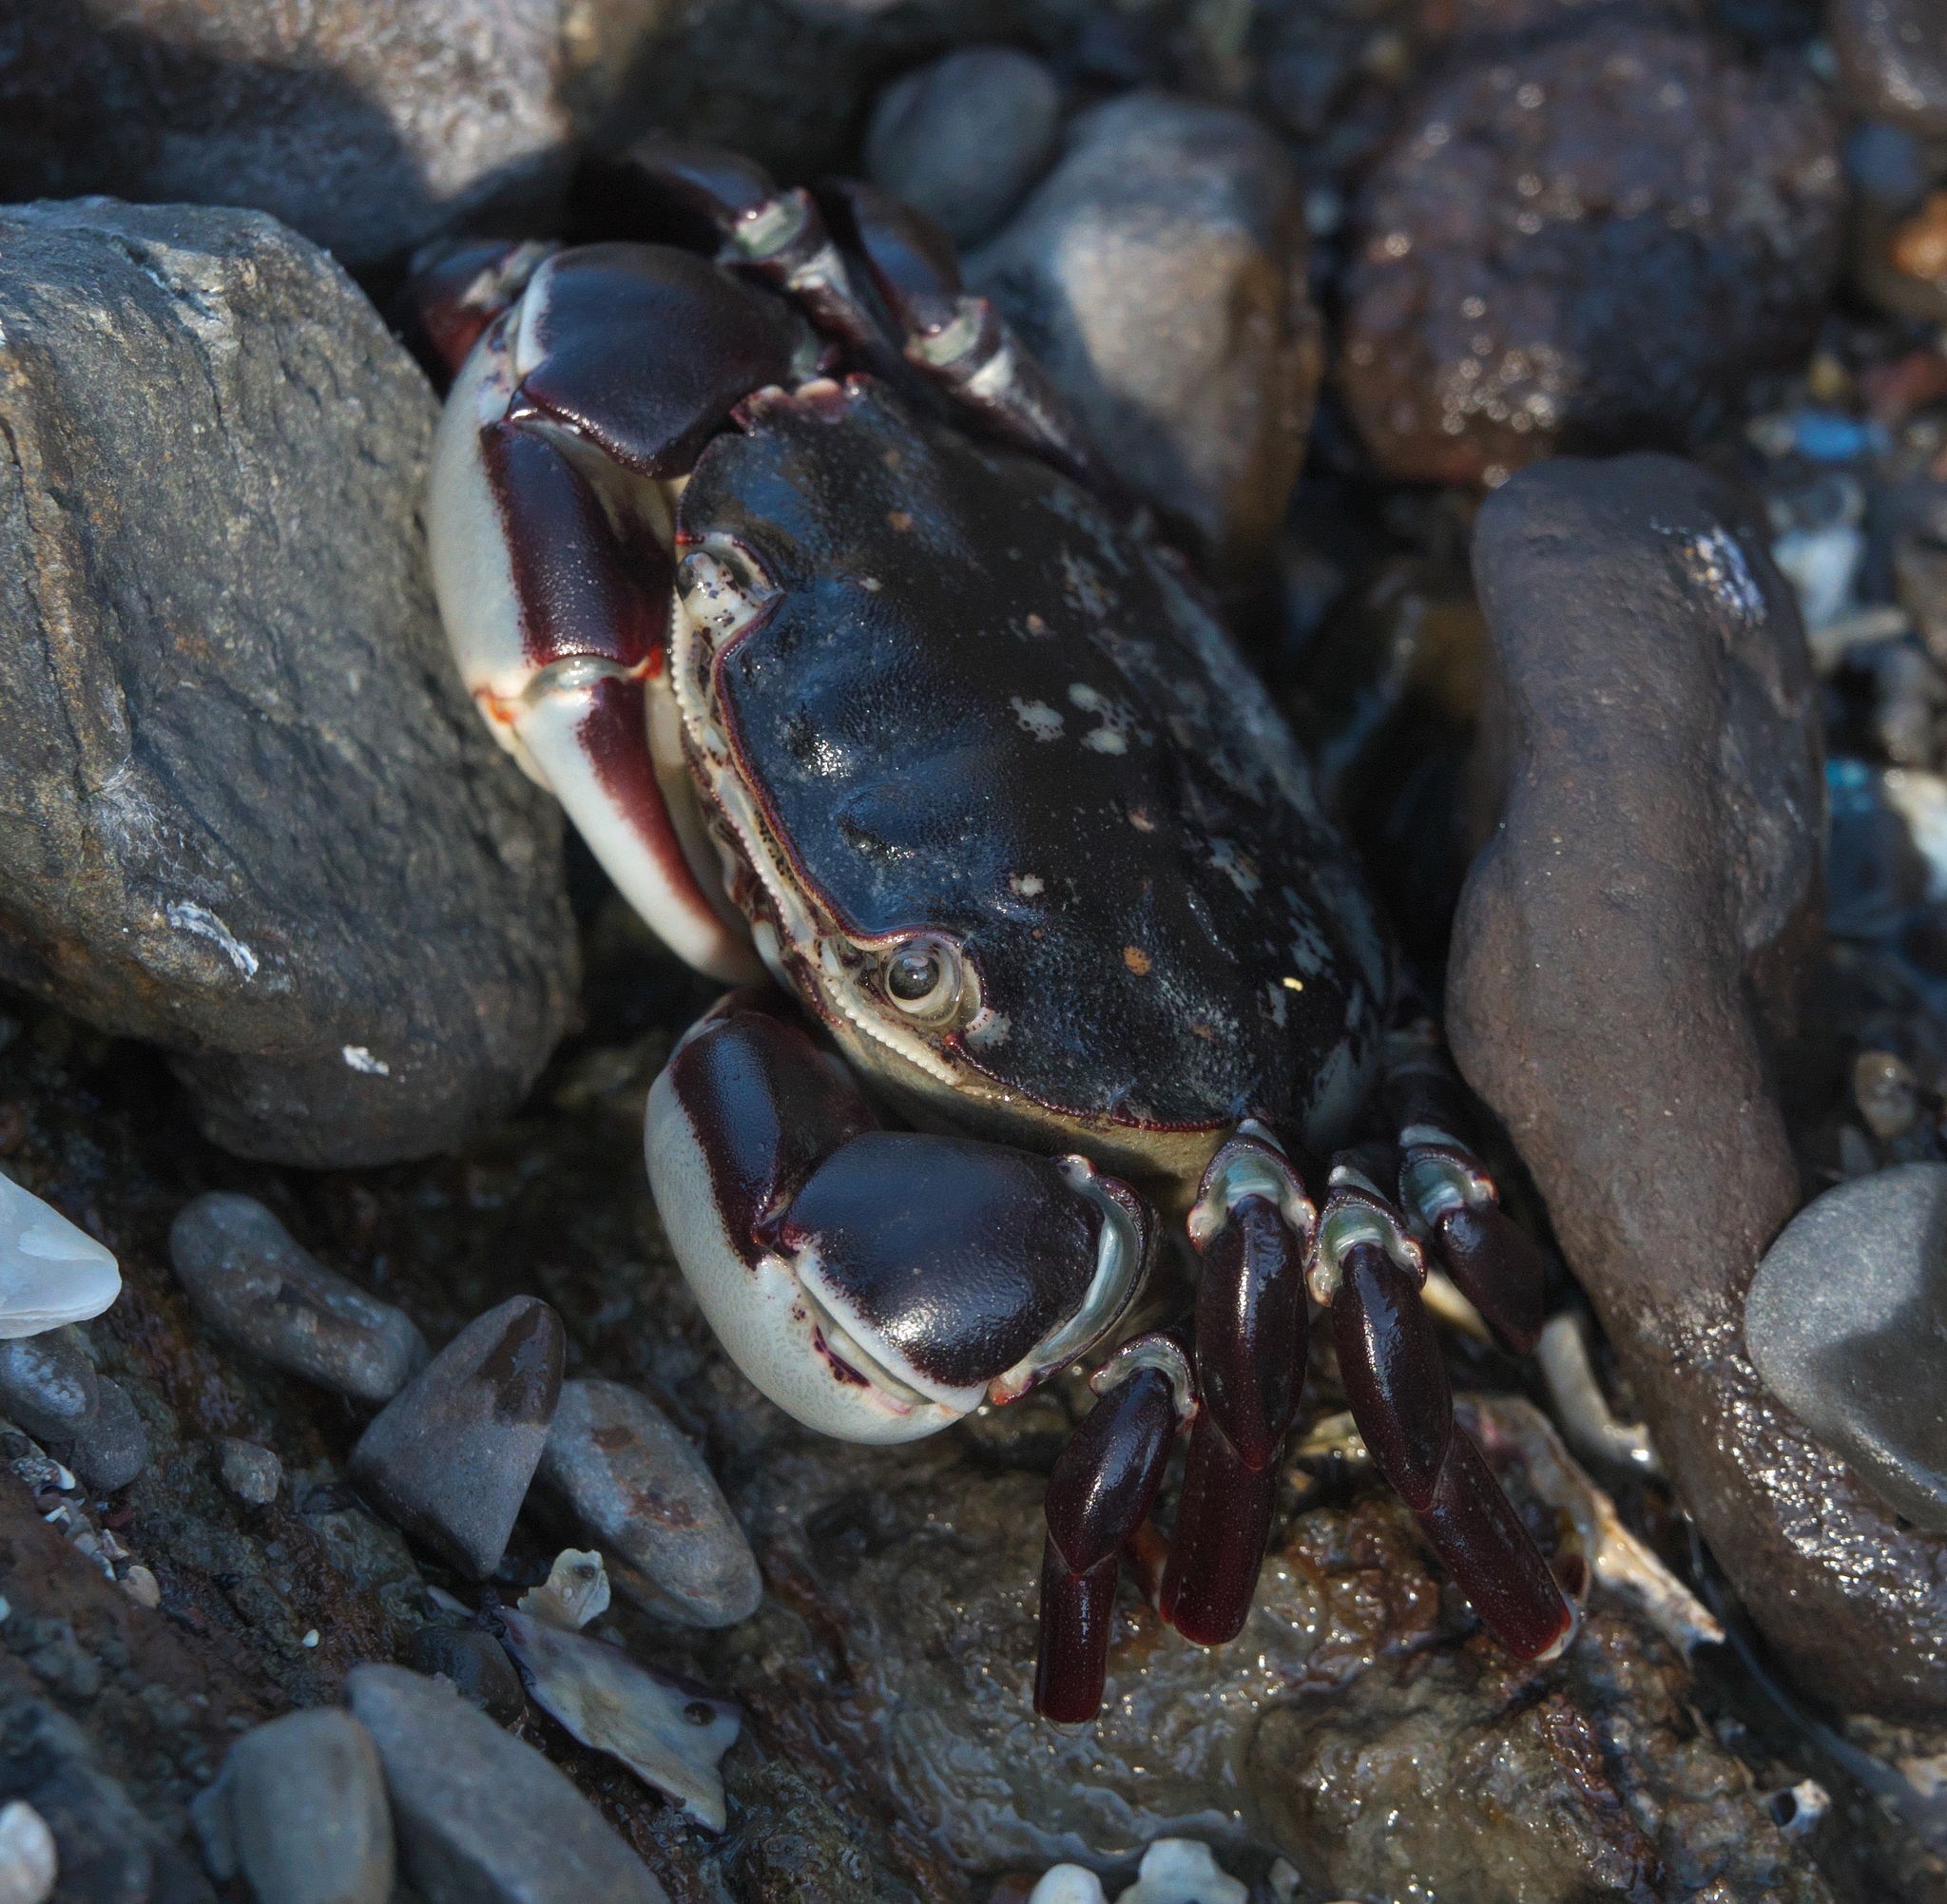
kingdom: Animalia
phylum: Arthropoda
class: Malacostraca
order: Decapoda
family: Varunidae
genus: Hemigrapsus
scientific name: Hemigrapsus sexdentatus
